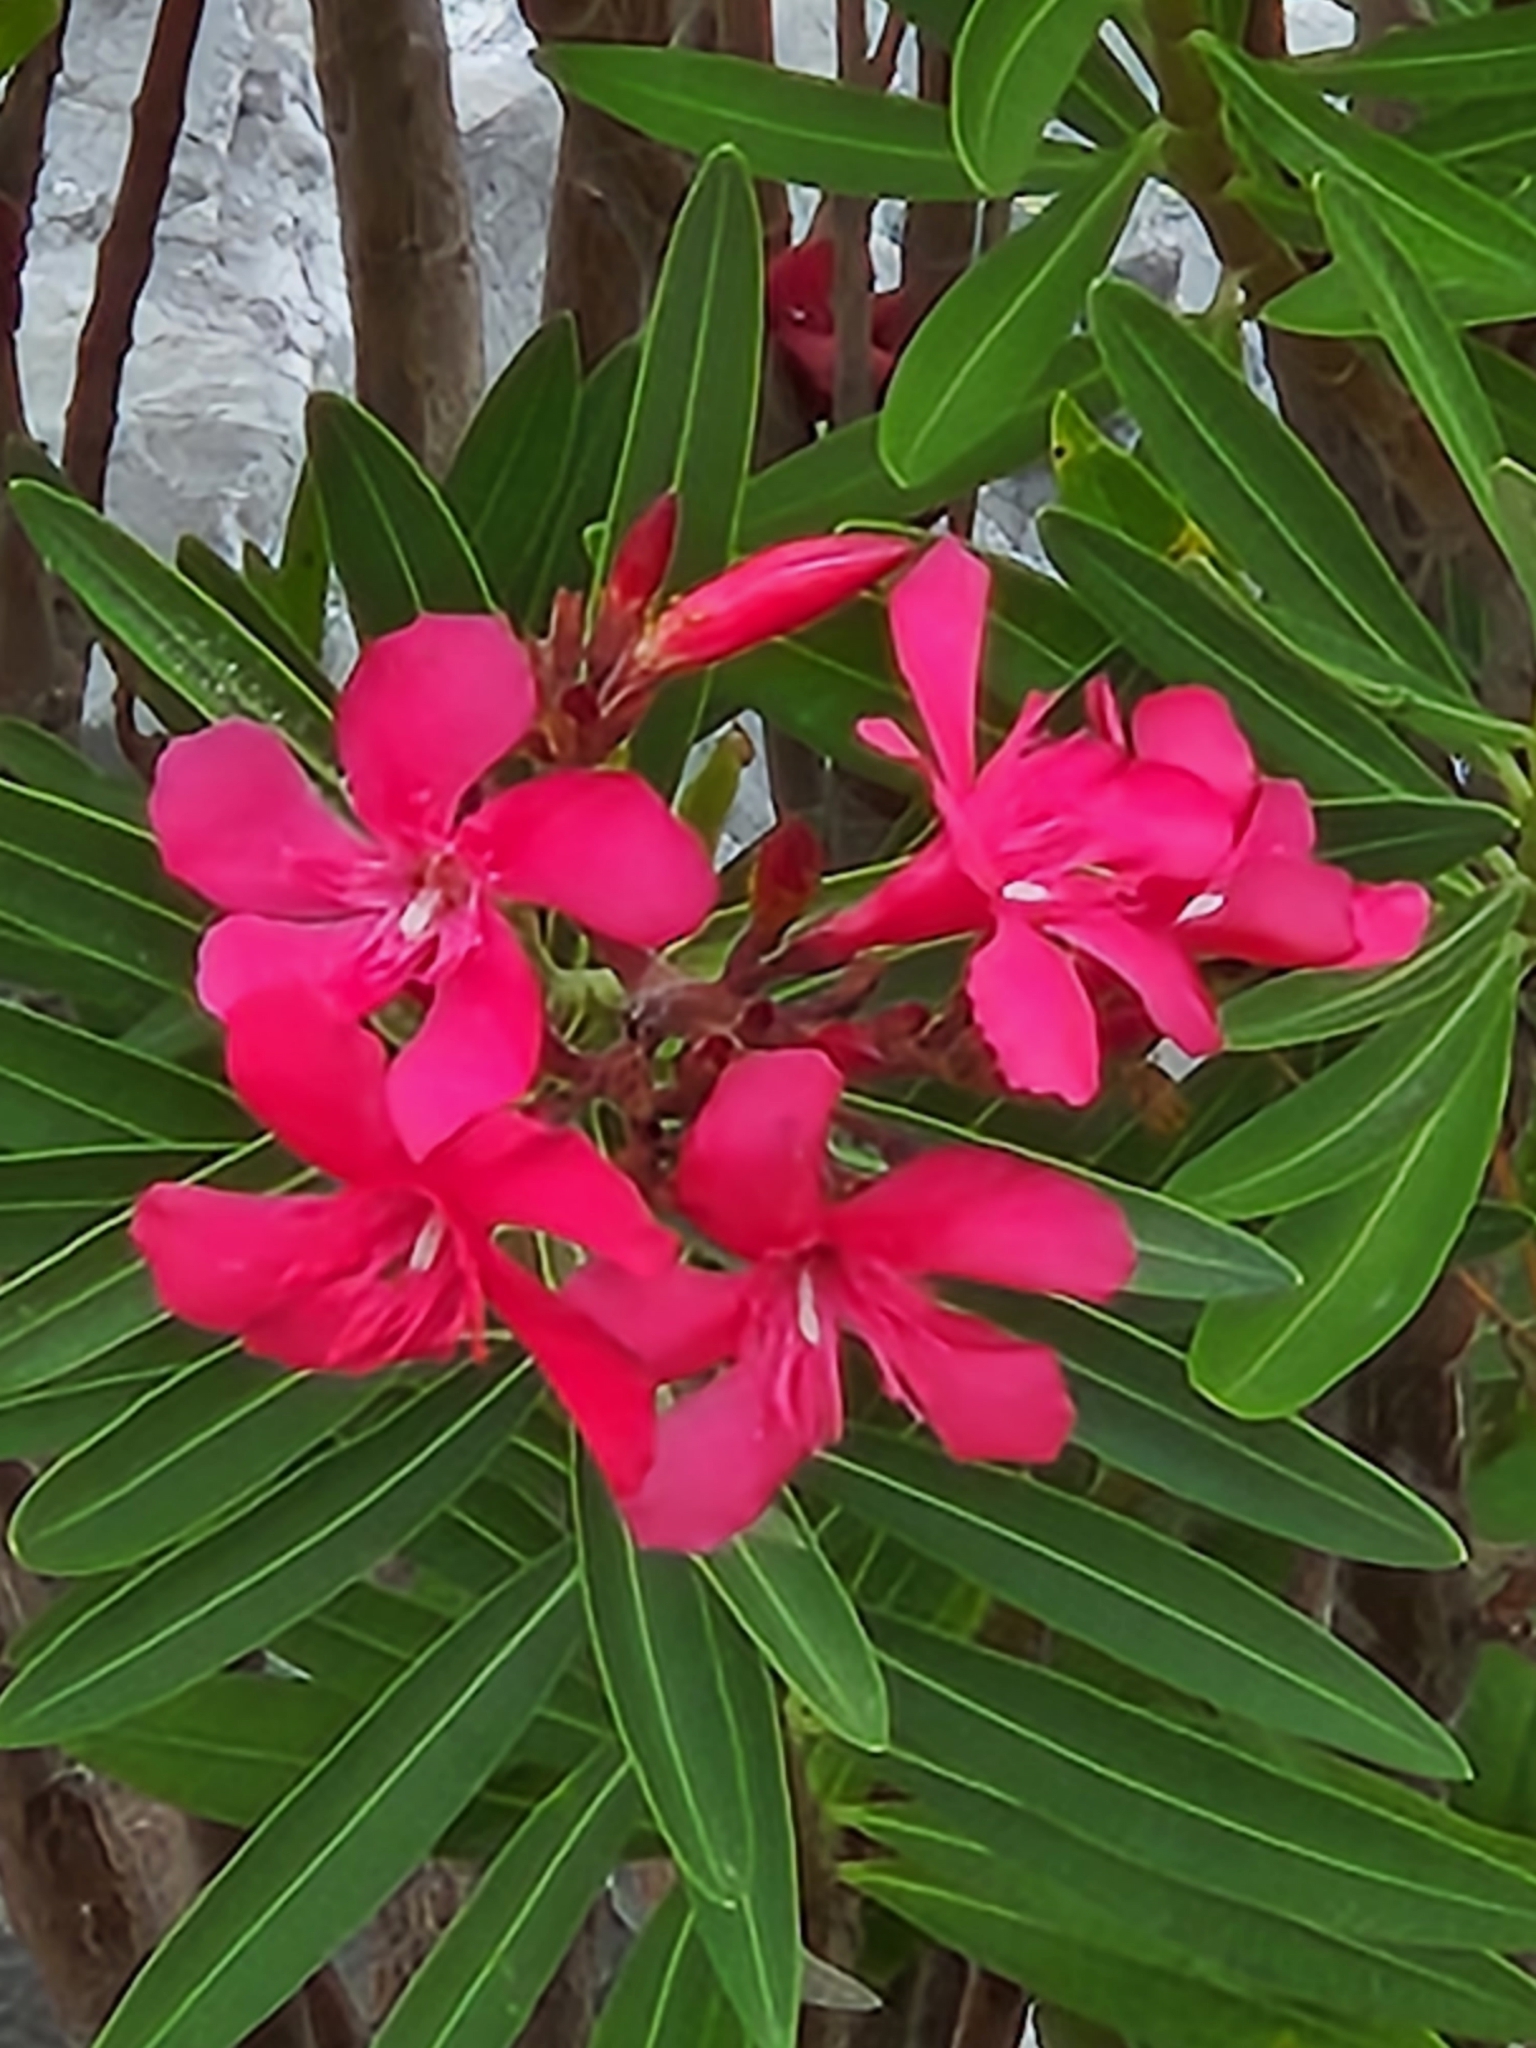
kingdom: Plantae
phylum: Tracheophyta
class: Magnoliopsida
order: Gentianales
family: Apocynaceae
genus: Nerium
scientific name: Nerium oleander
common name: Oleander
